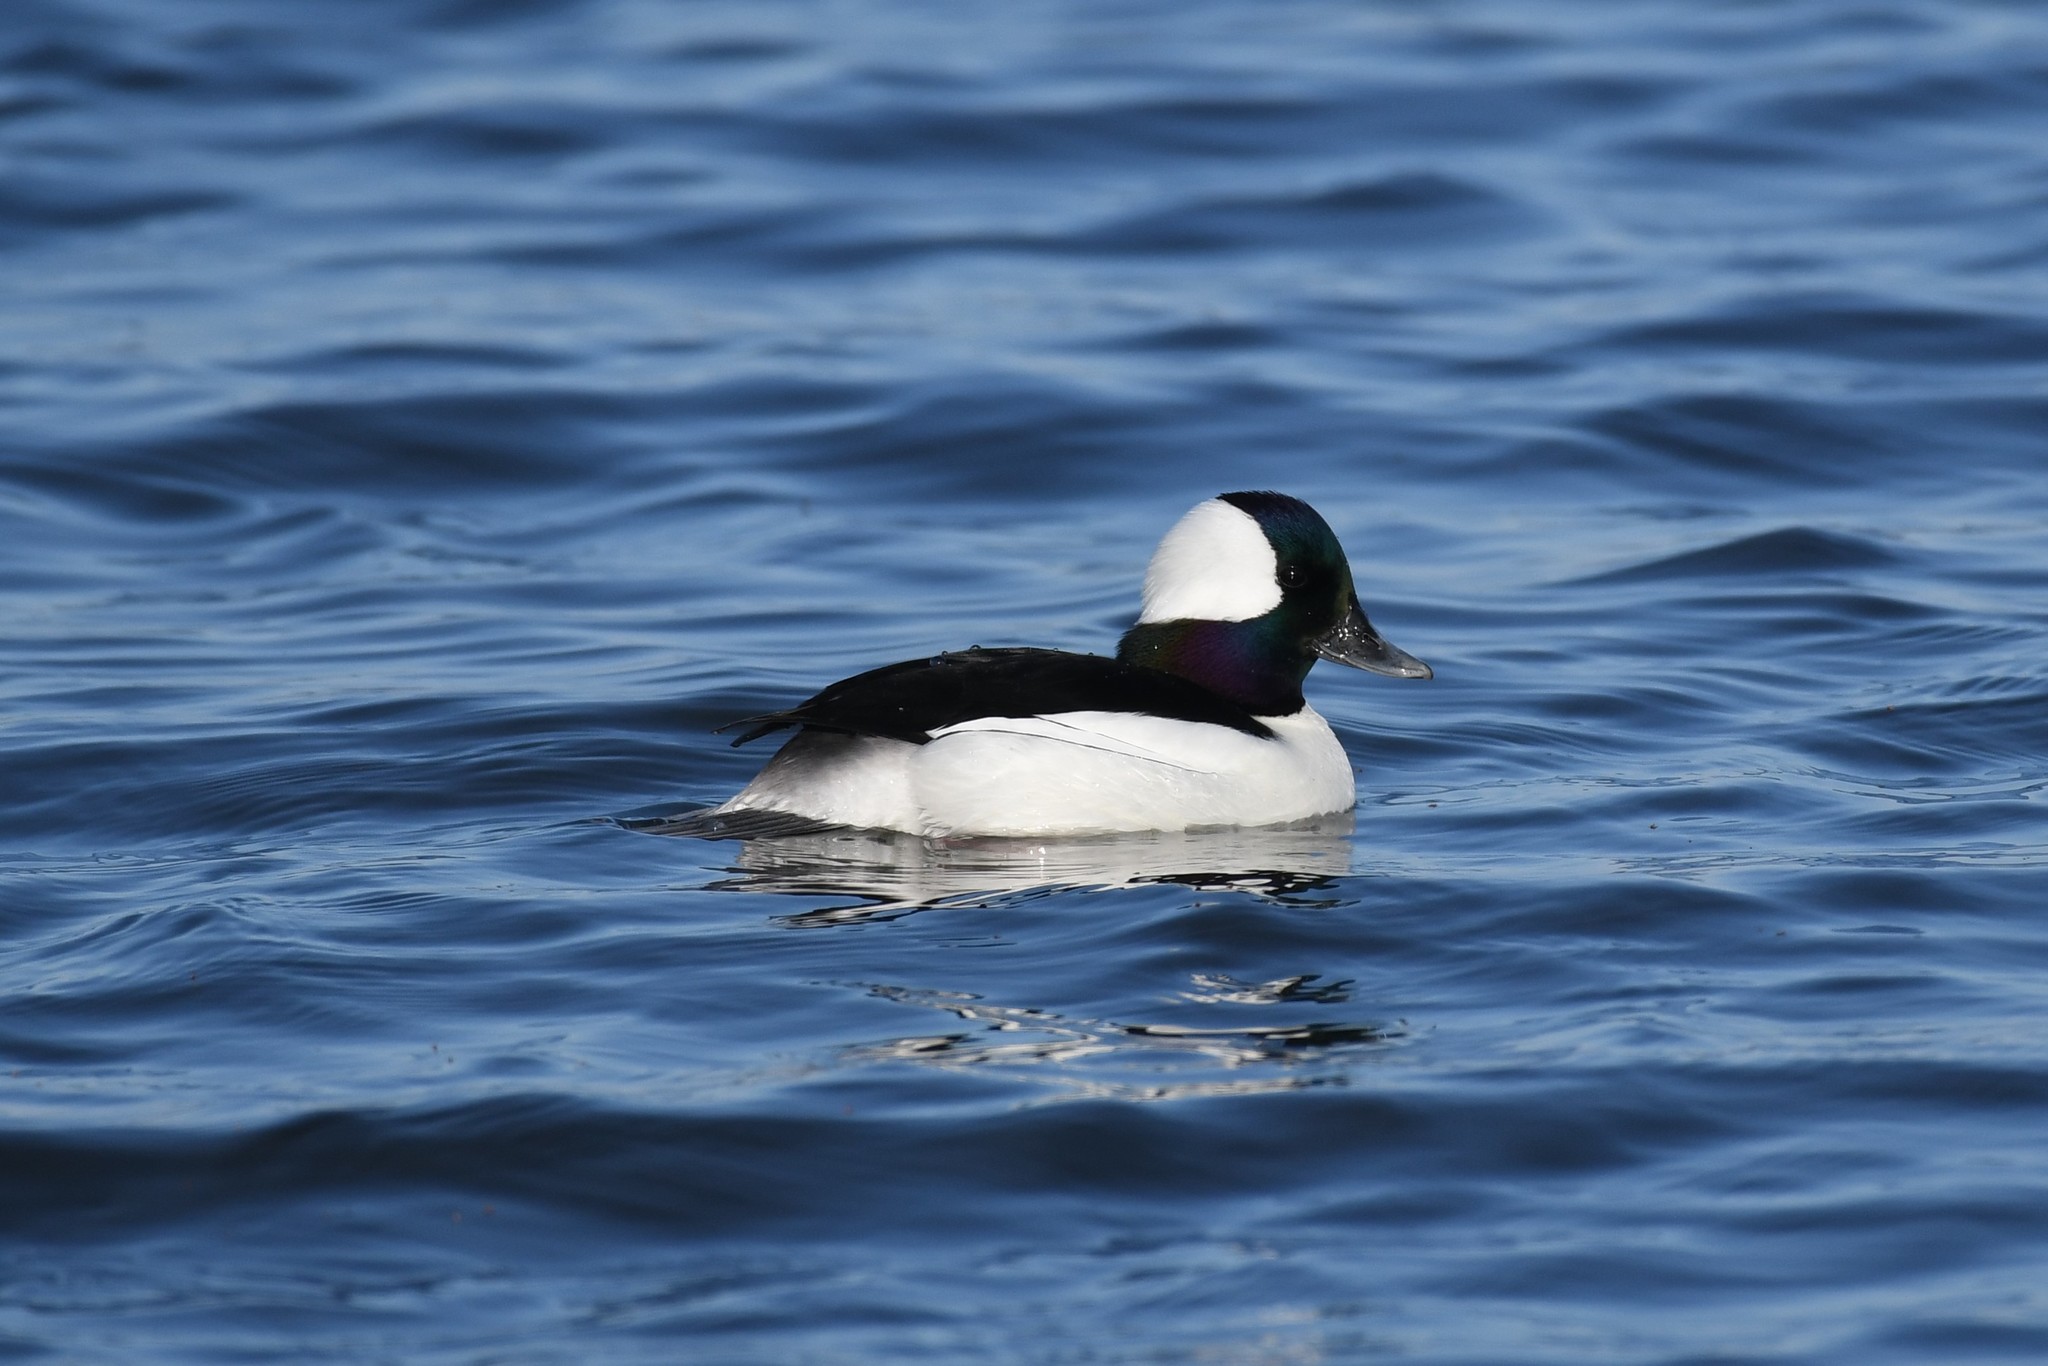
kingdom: Animalia
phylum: Chordata
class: Aves
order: Anseriformes
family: Anatidae
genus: Bucephala
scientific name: Bucephala albeola
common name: Bufflehead
